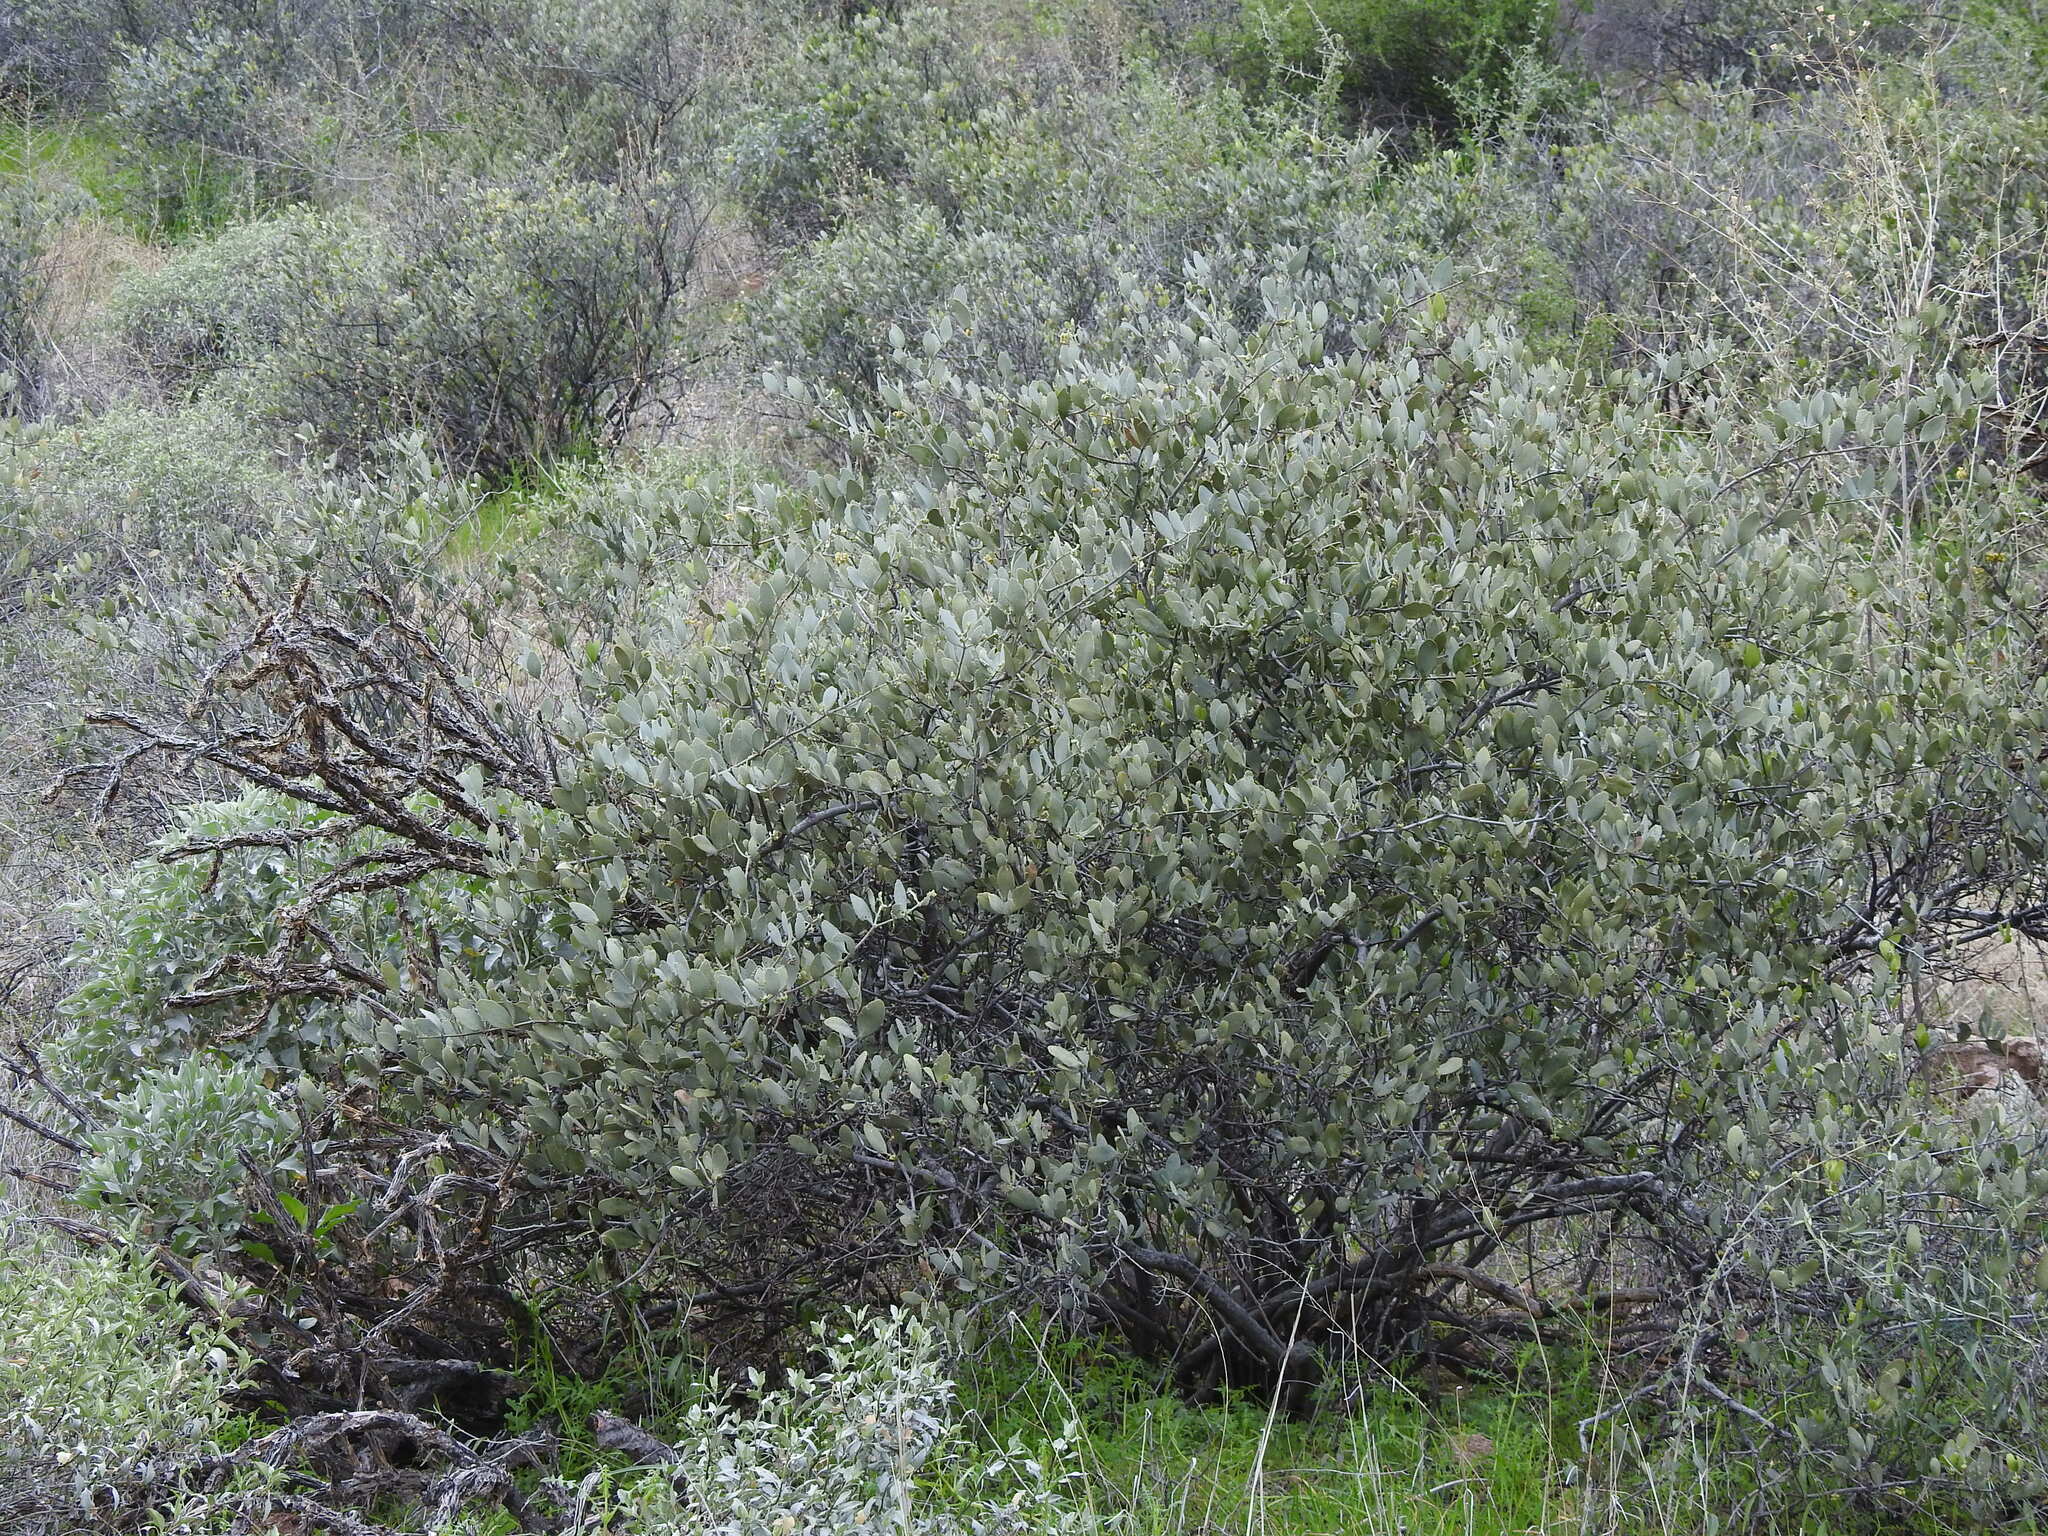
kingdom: Plantae
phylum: Tracheophyta
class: Magnoliopsida
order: Caryophyllales
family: Simmondsiaceae
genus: Simmondsia
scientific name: Simmondsia chinensis
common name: Jojoba
